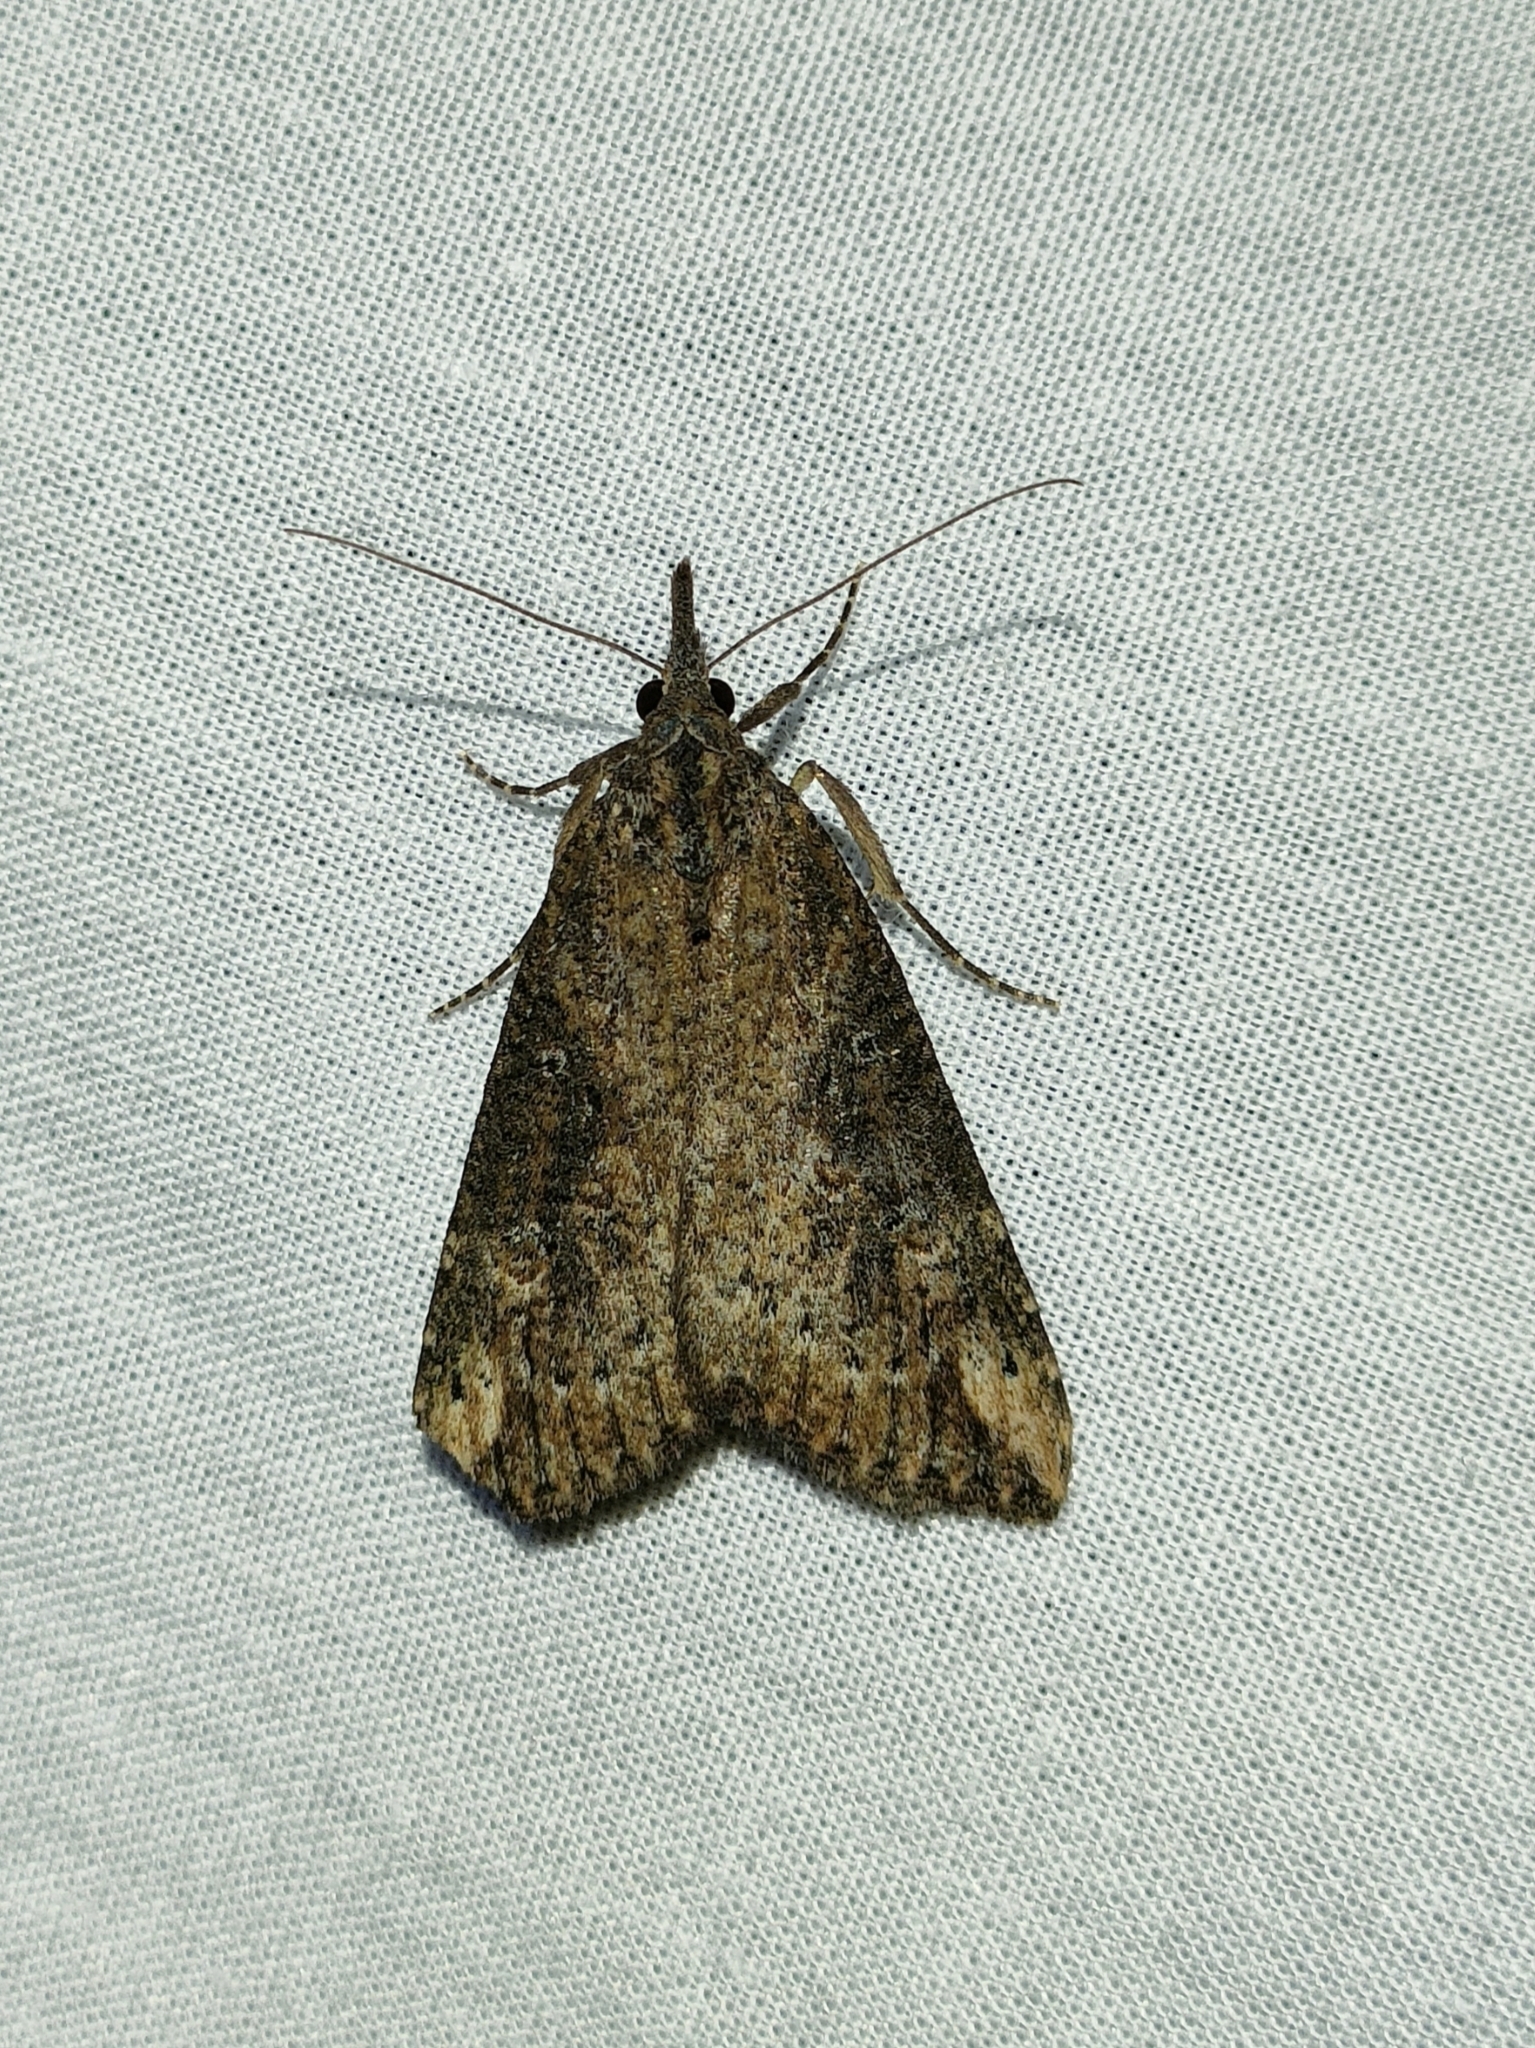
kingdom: Animalia
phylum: Arthropoda
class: Insecta
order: Lepidoptera
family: Erebidae
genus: Hypena
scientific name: Hypena obesalis
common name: Paignton snout
